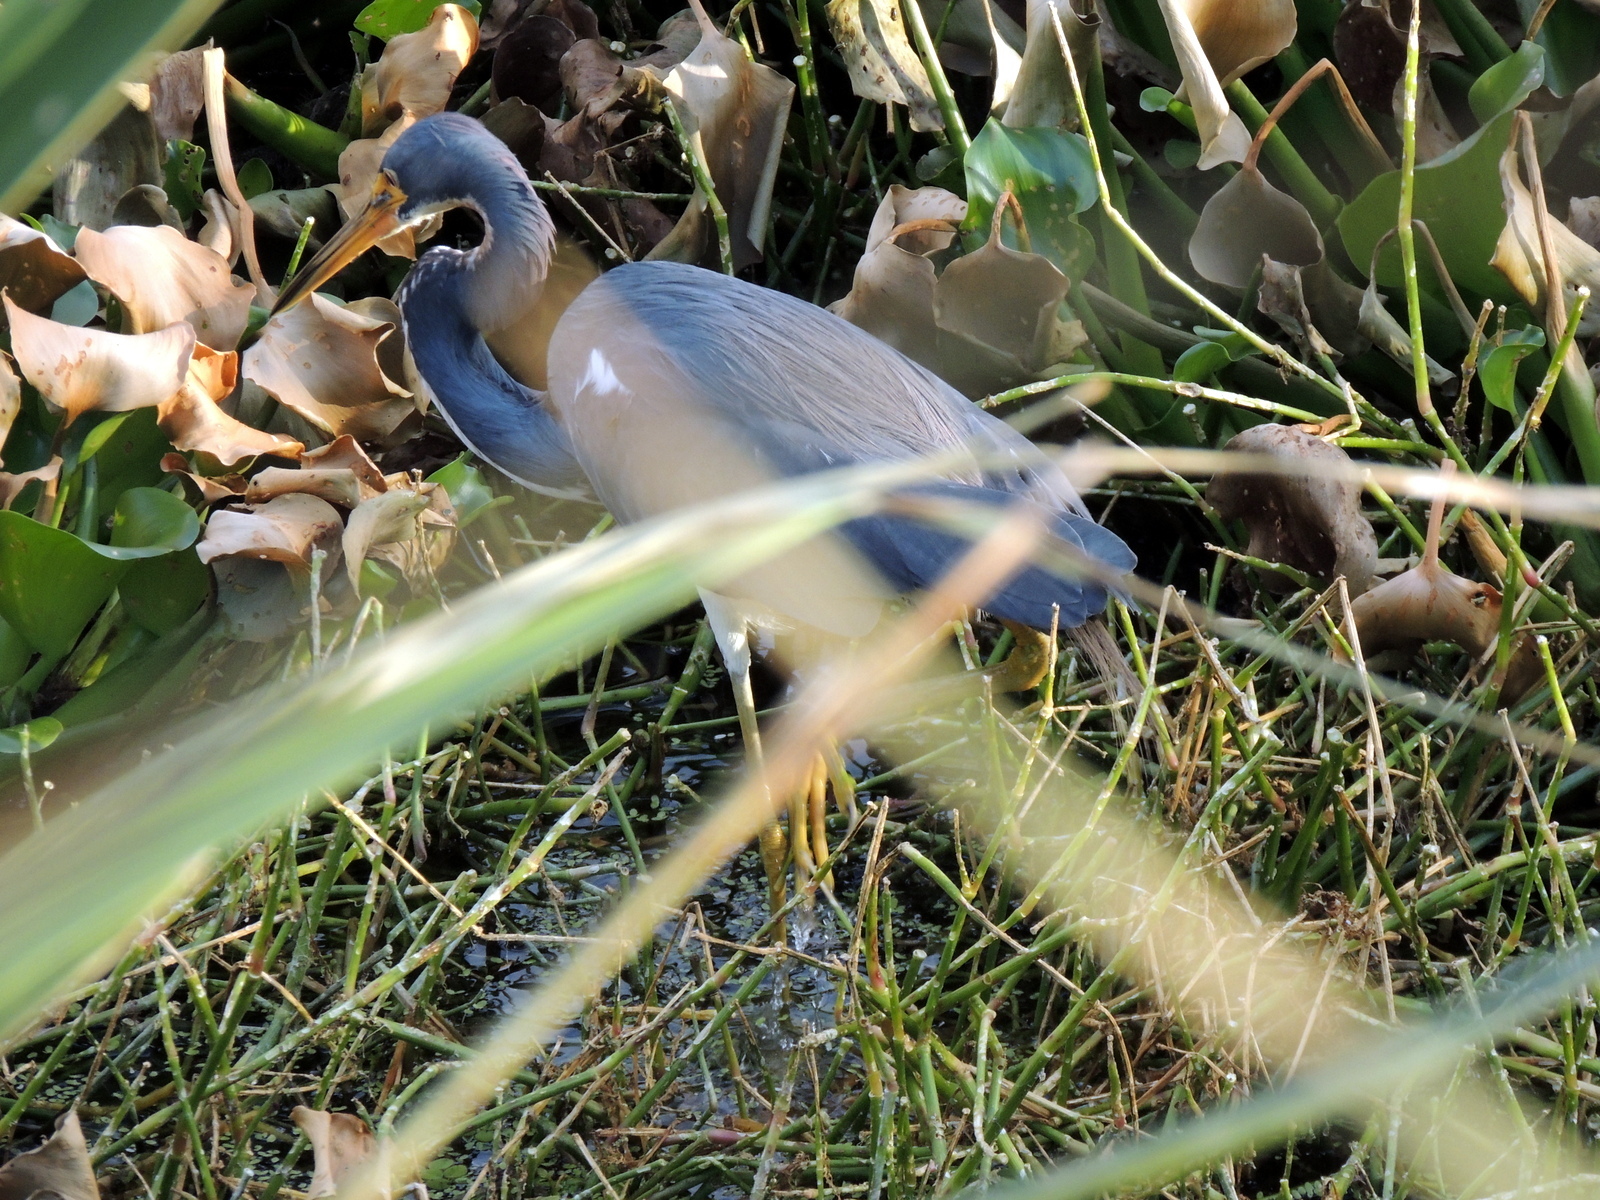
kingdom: Animalia
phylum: Chordata
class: Aves
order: Pelecaniformes
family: Ardeidae
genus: Egretta
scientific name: Egretta tricolor
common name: Tricolored heron
